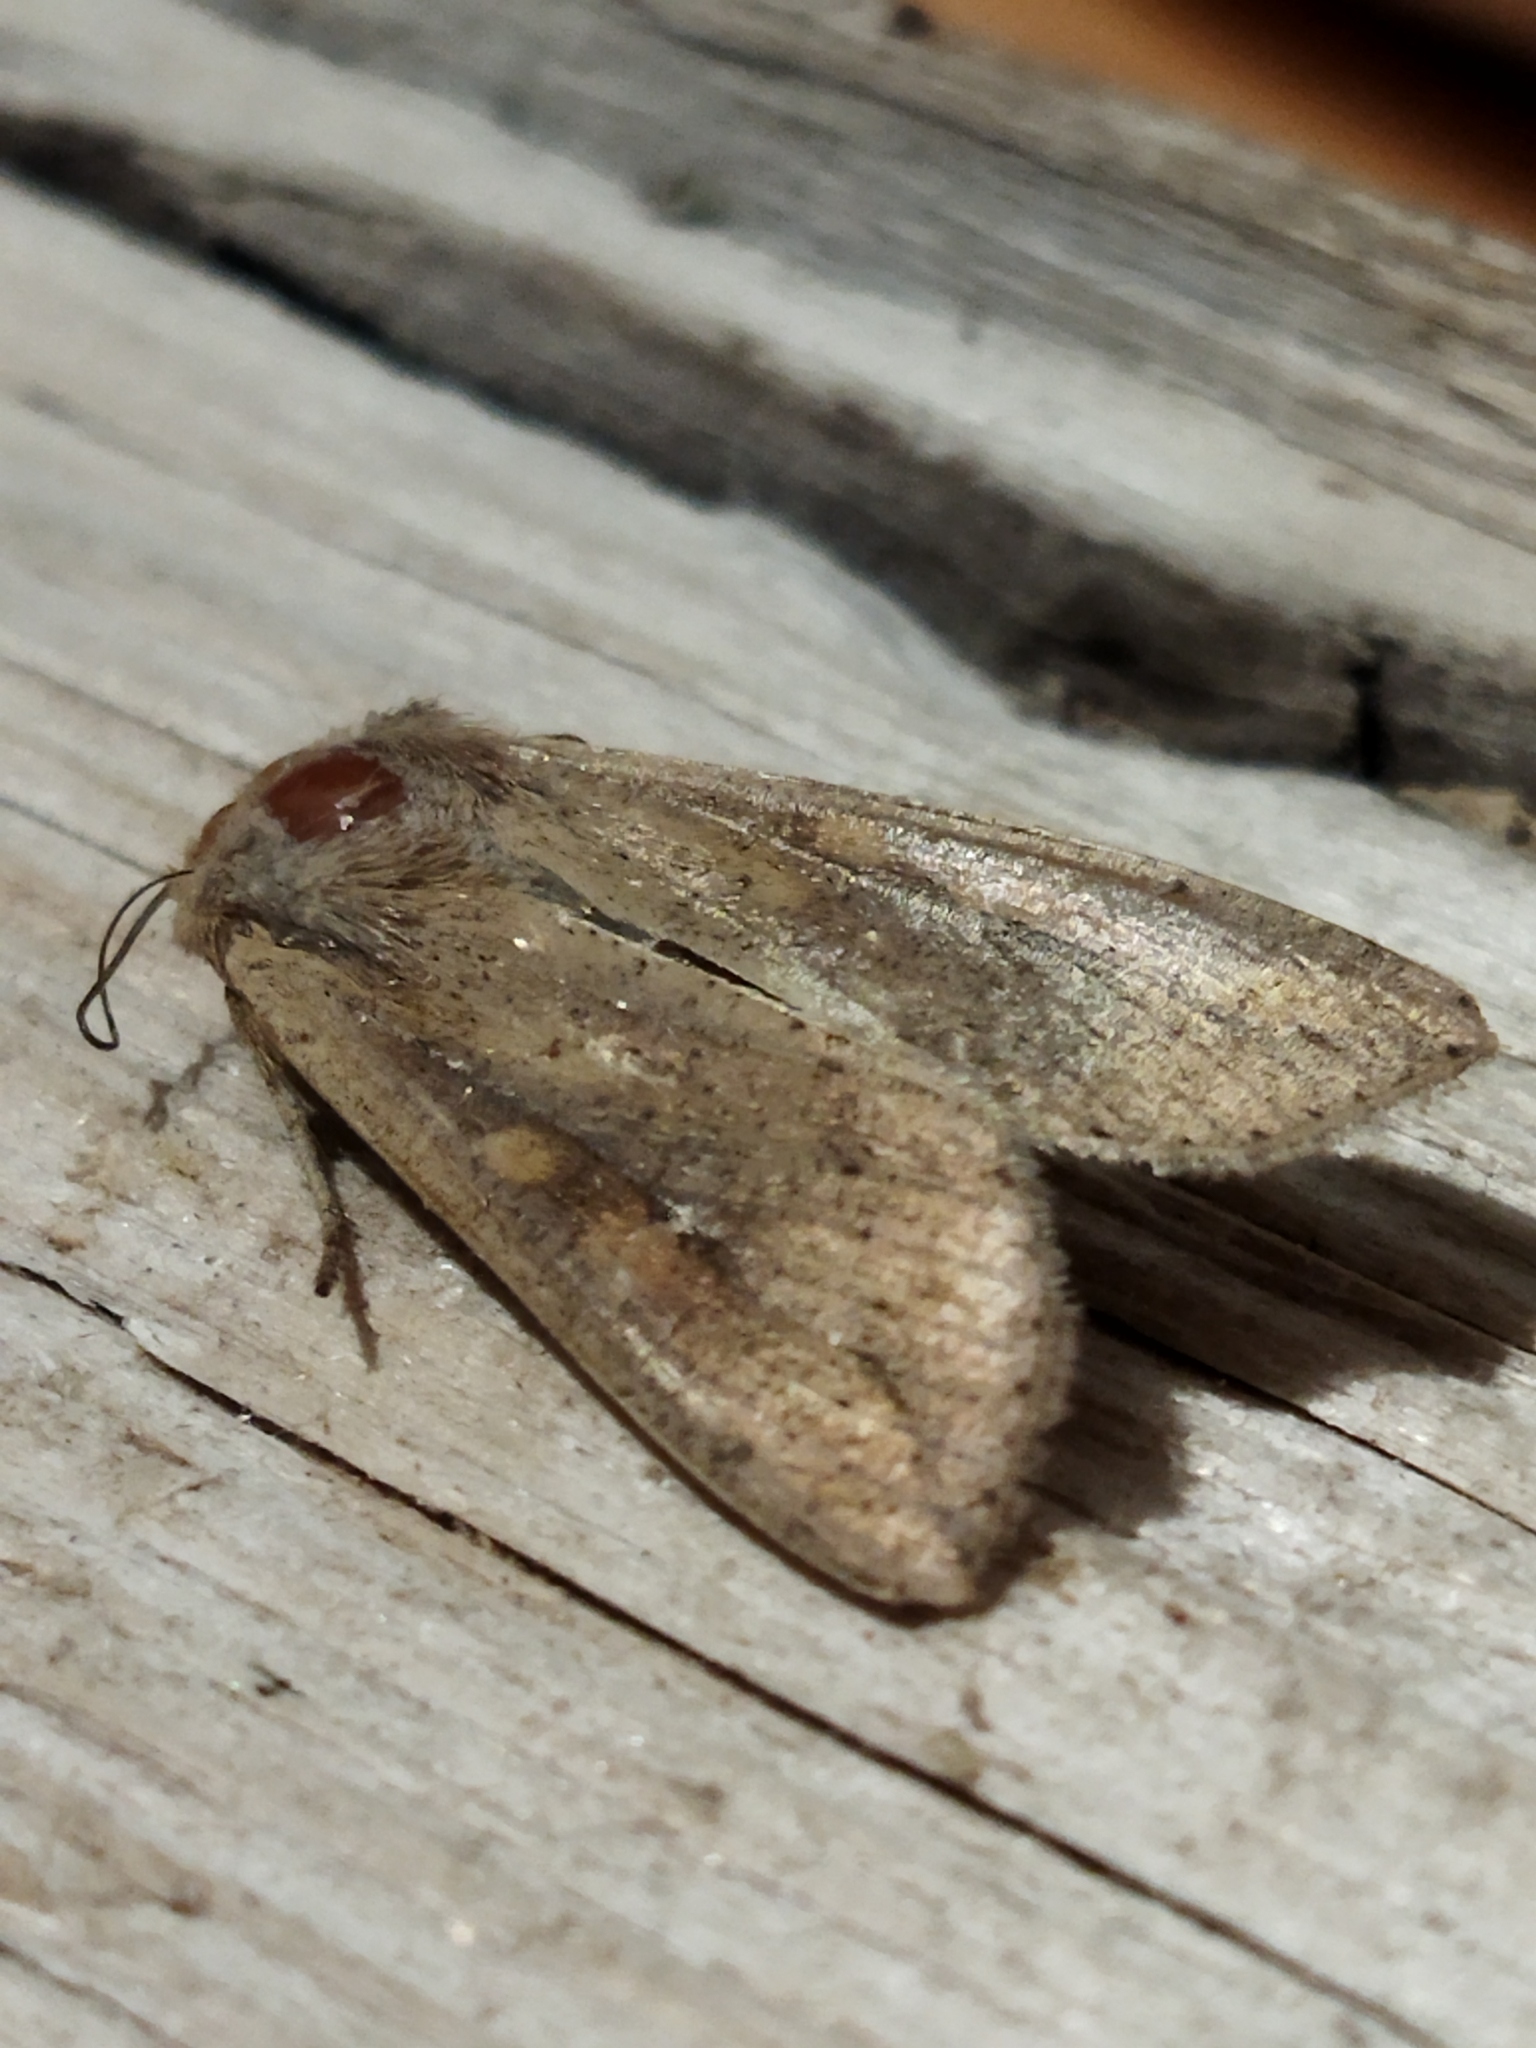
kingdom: Animalia
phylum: Arthropoda
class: Insecta
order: Lepidoptera
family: Noctuidae
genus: Mythimna
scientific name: Mythimna unipuncta
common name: White-speck
